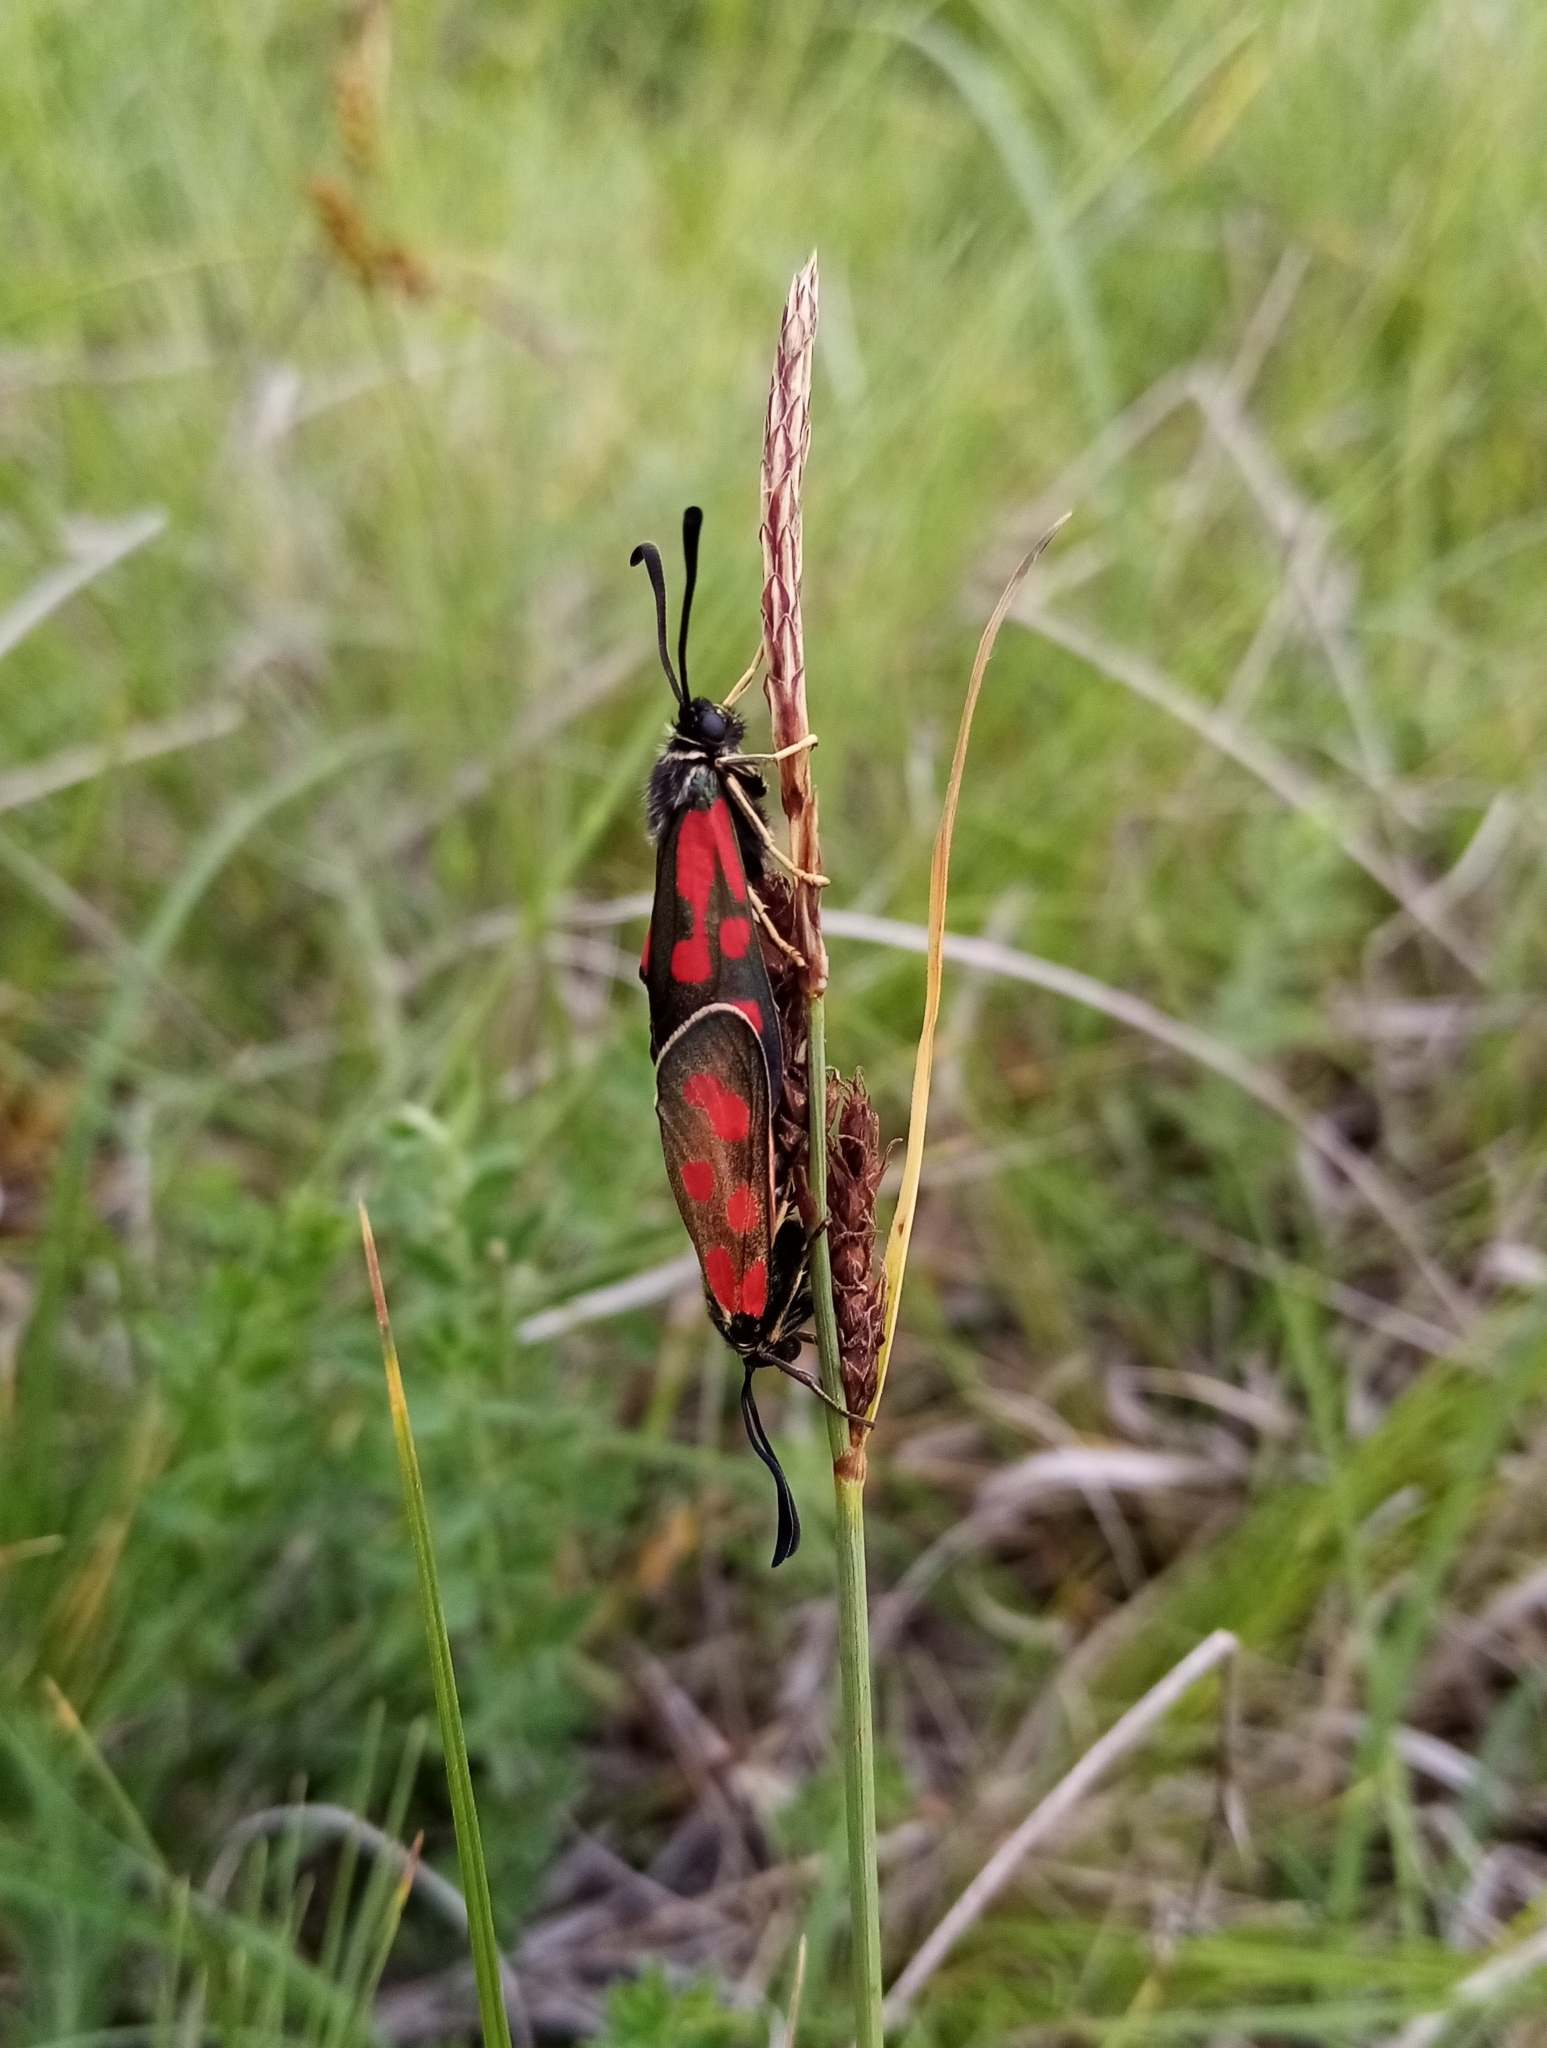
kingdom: Animalia
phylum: Arthropoda
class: Insecta
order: Lepidoptera
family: Zygaenidae
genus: Zygaena
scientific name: Zygaena loti
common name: Slender scotch burnet
